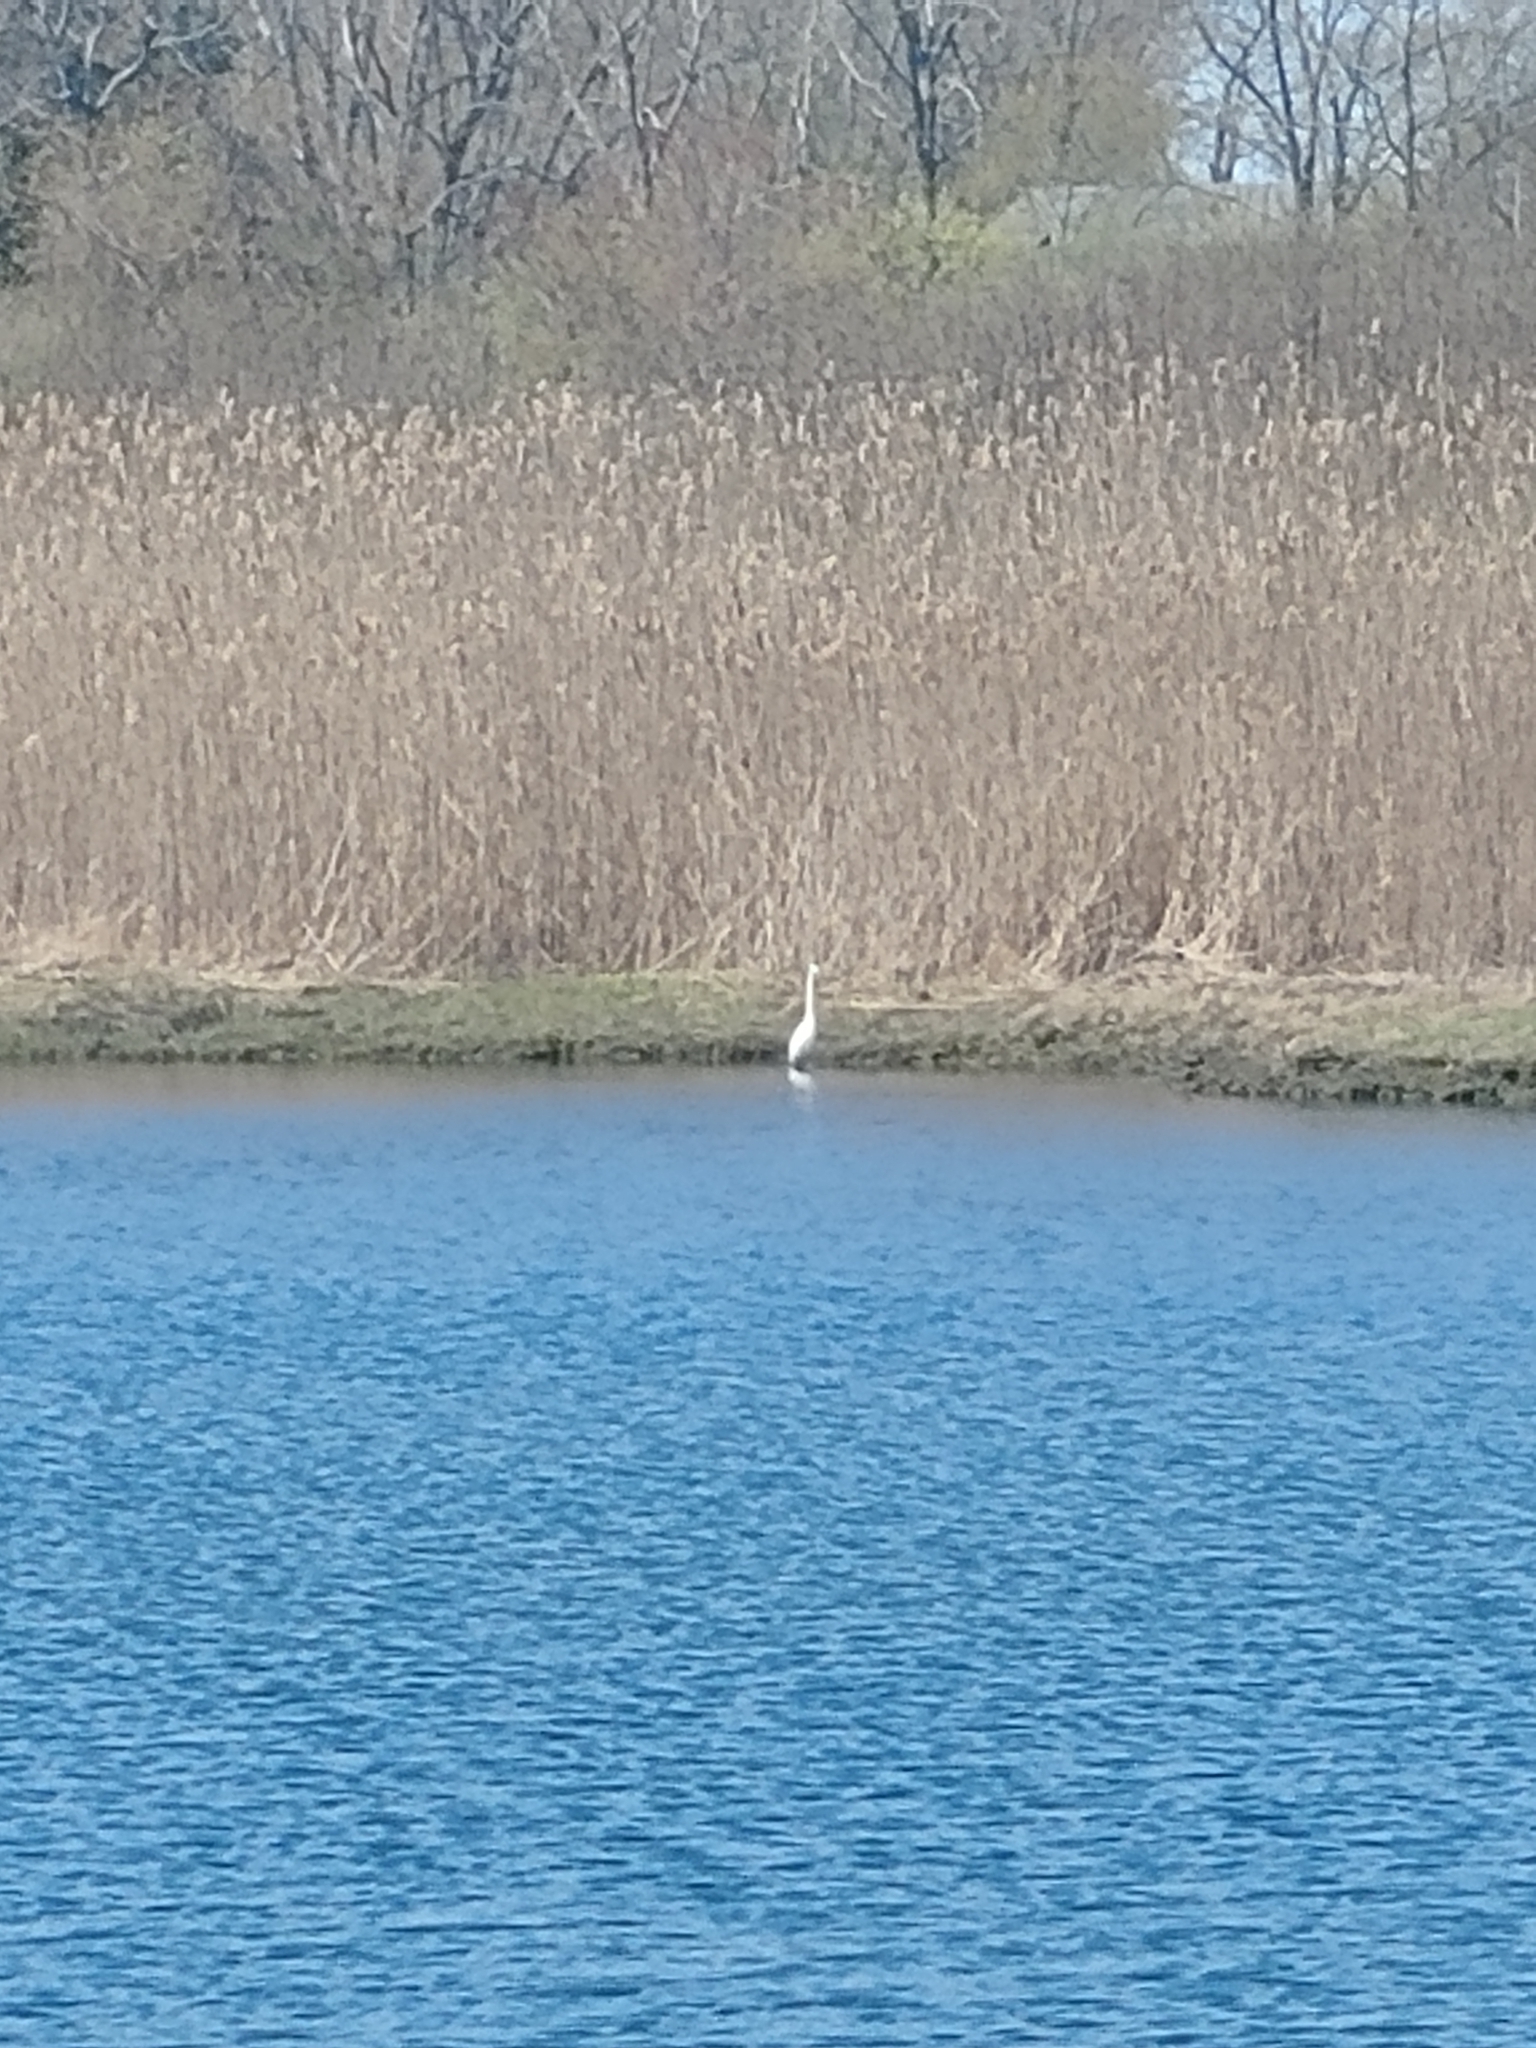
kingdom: Animalia
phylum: Chordata
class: Aves
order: Pelecaniformes
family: Ardeidae
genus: Ardea
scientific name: Ardea alba
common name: Great egret
